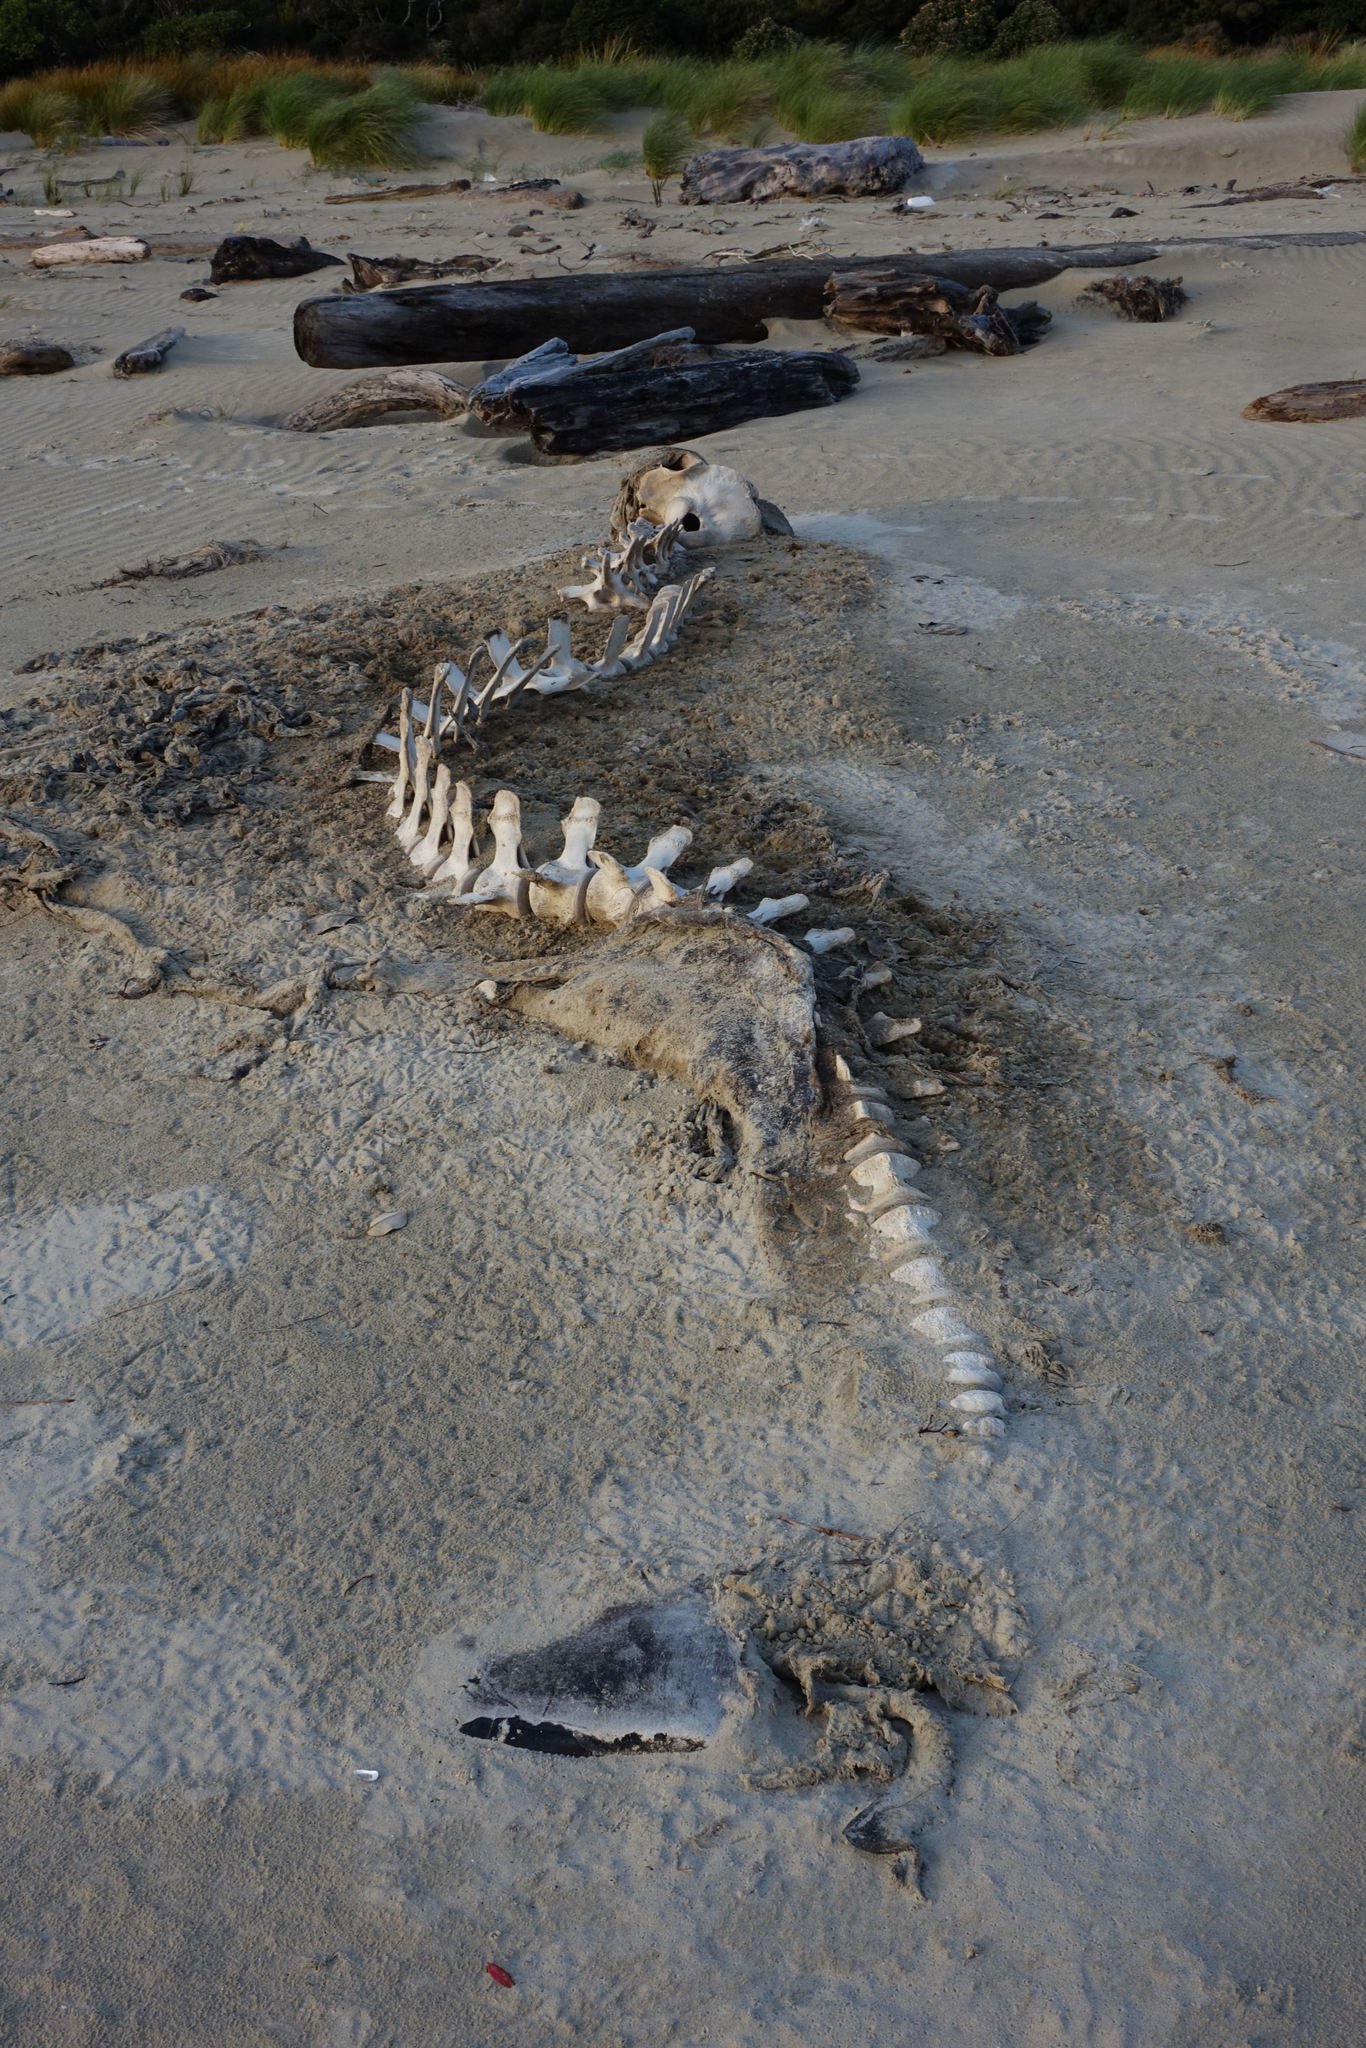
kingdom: Animalia
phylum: Chordata
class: Mammalia
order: Cetacea
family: Delphinidae
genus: Globicephala
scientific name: Globicephala melas
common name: Long-finned pilot whale
